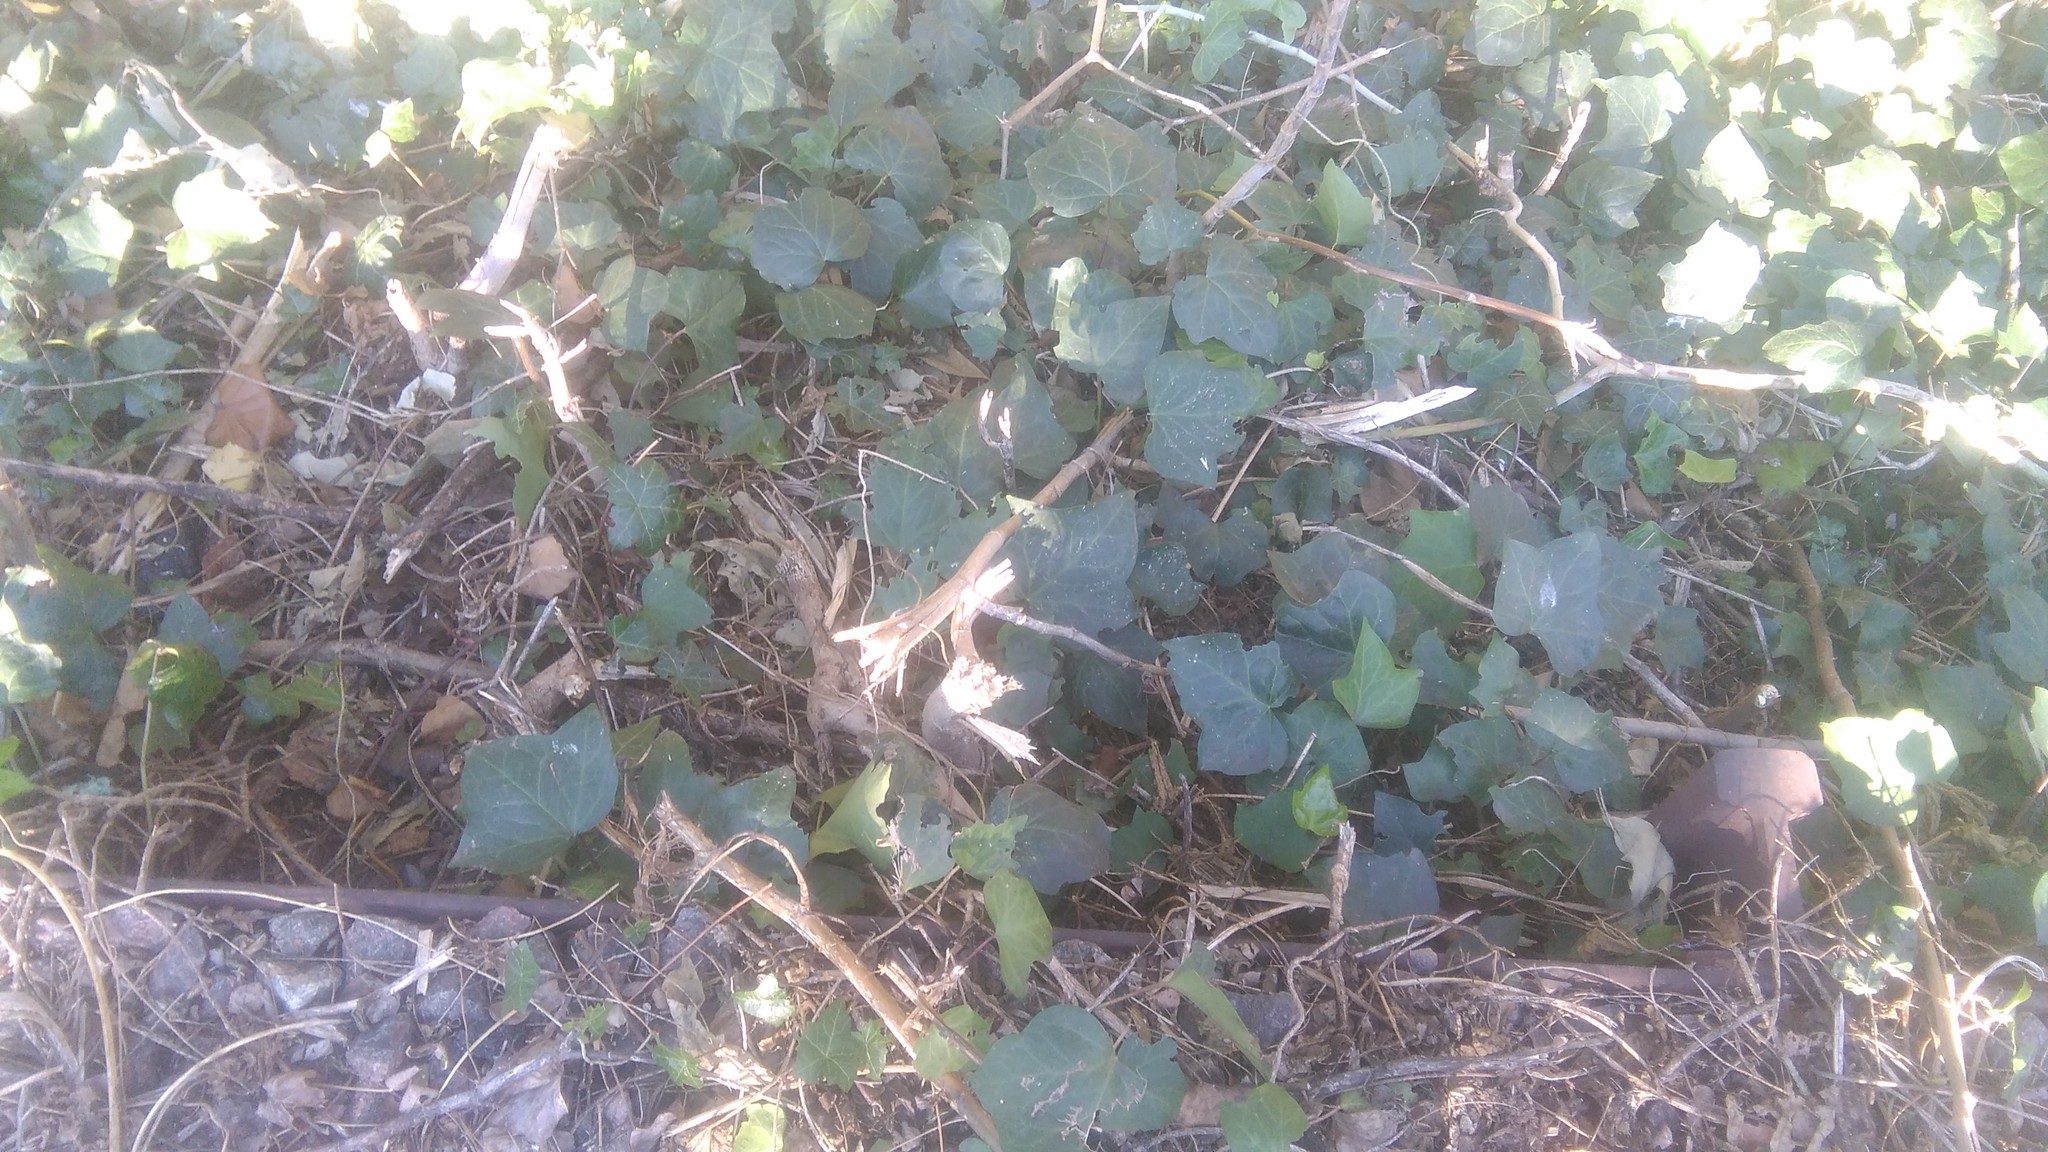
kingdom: Plantae
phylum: Tracheophyta
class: Magnoliopsida
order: Apiales
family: Araliaceae
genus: Hedera
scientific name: Hedera helix
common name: Ivy
